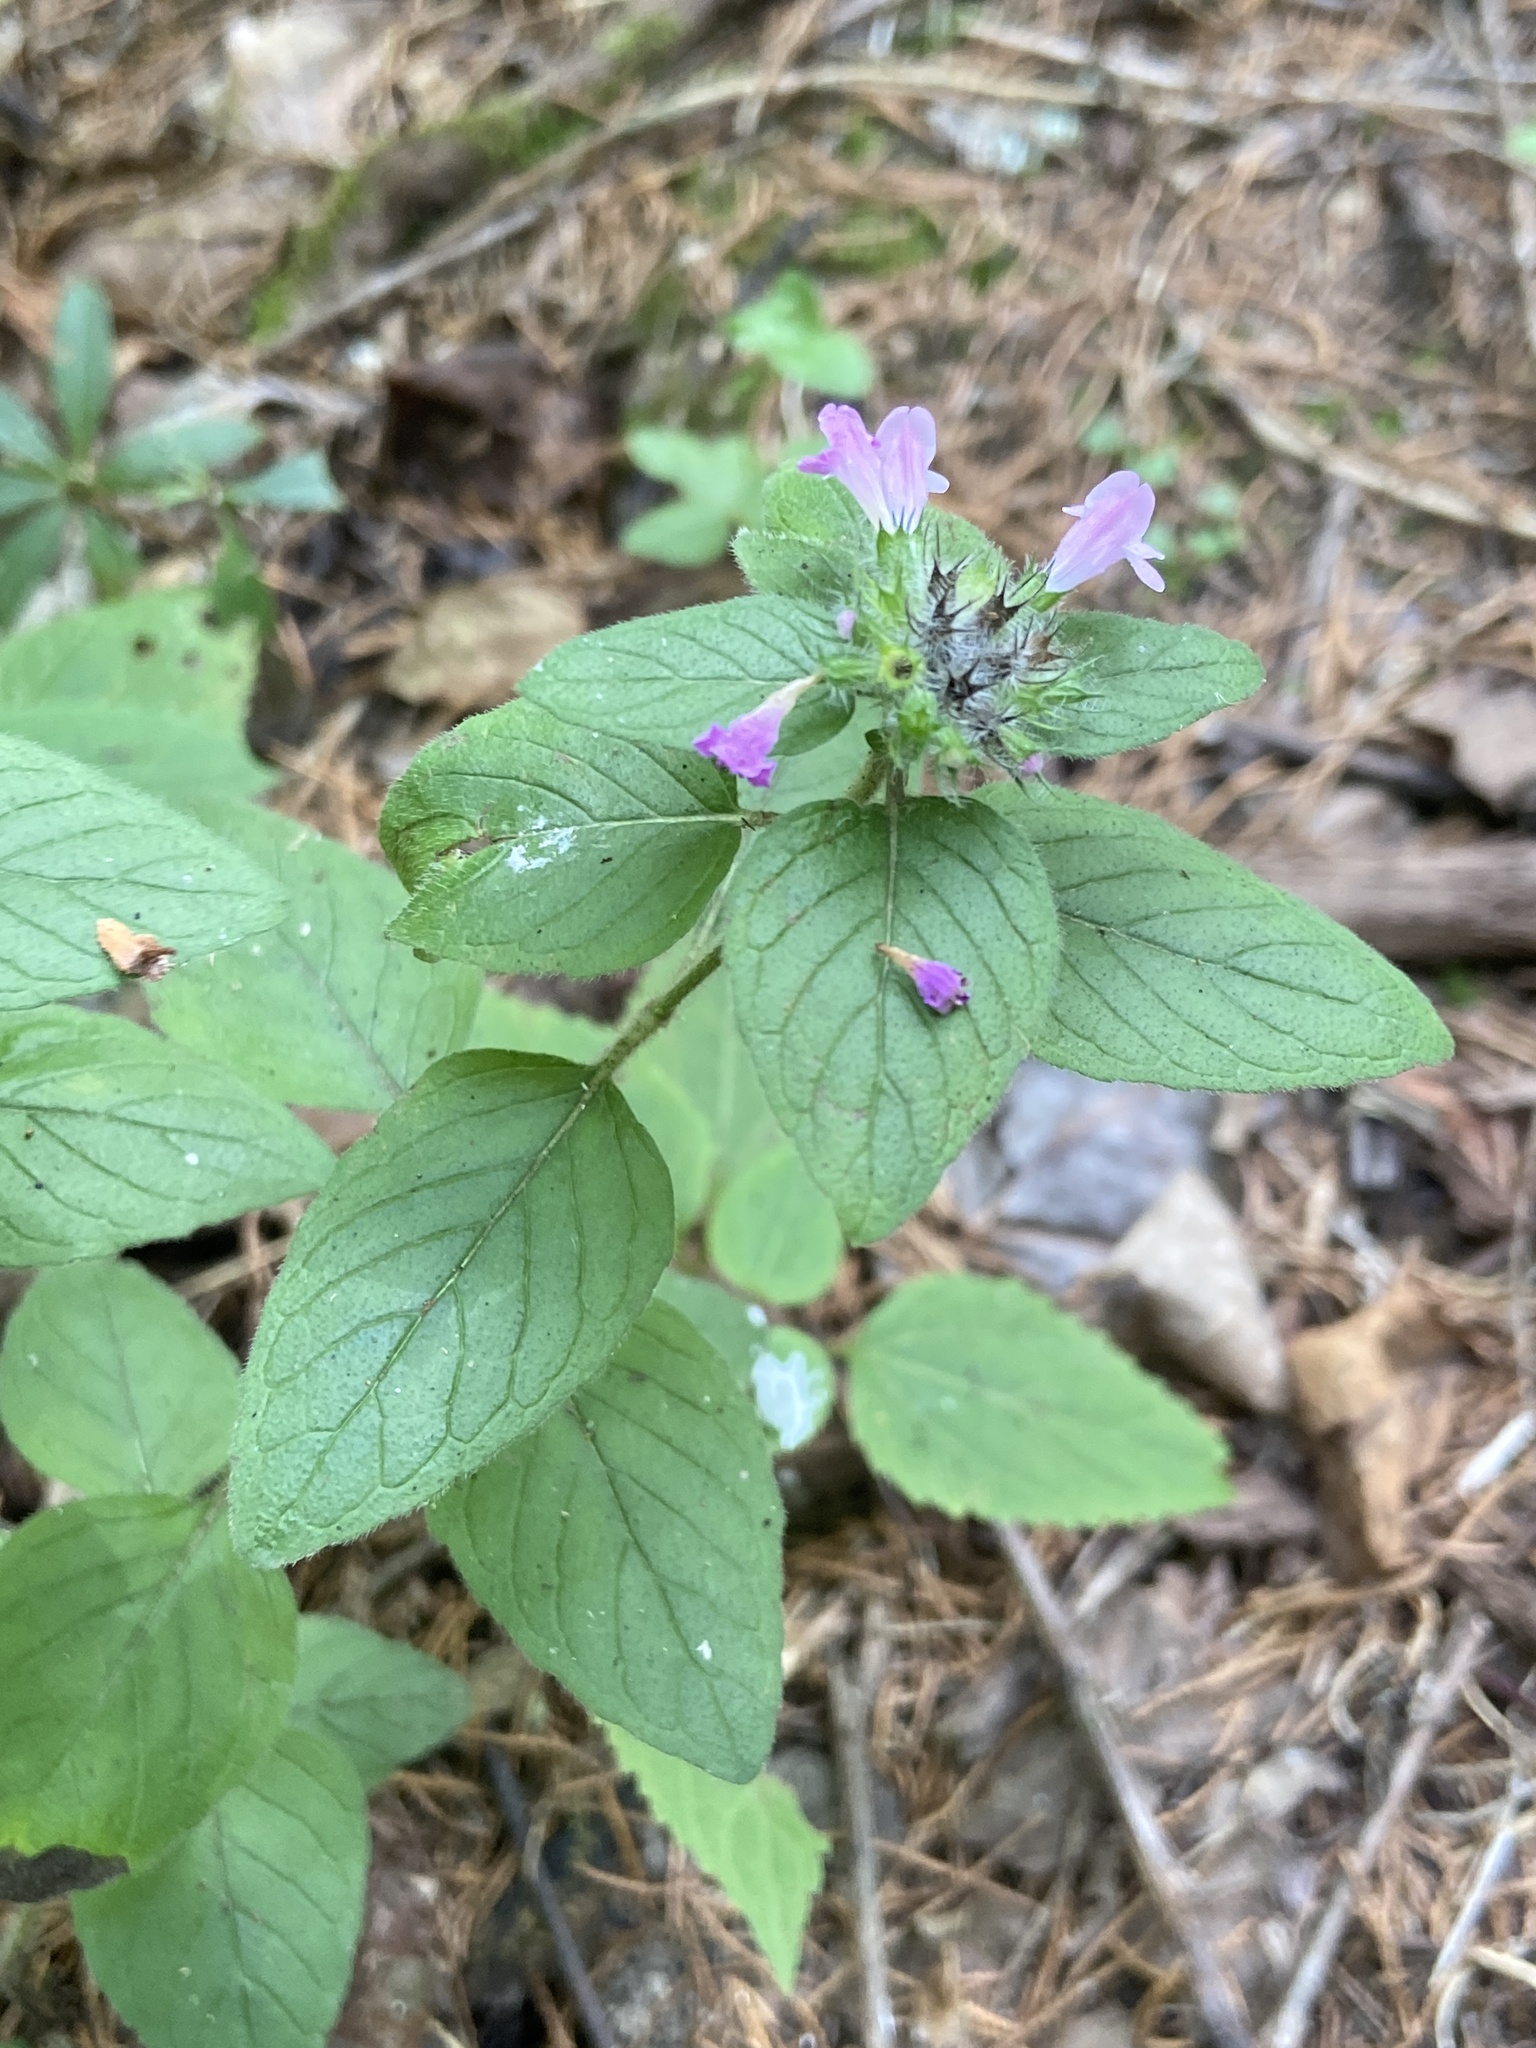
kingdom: Plantae
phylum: Tracheophyta
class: Magnoliopsida
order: Lamiales
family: Lamiaceae
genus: Clinopodium
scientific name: Clinopodium vulgare
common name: Wild basil
